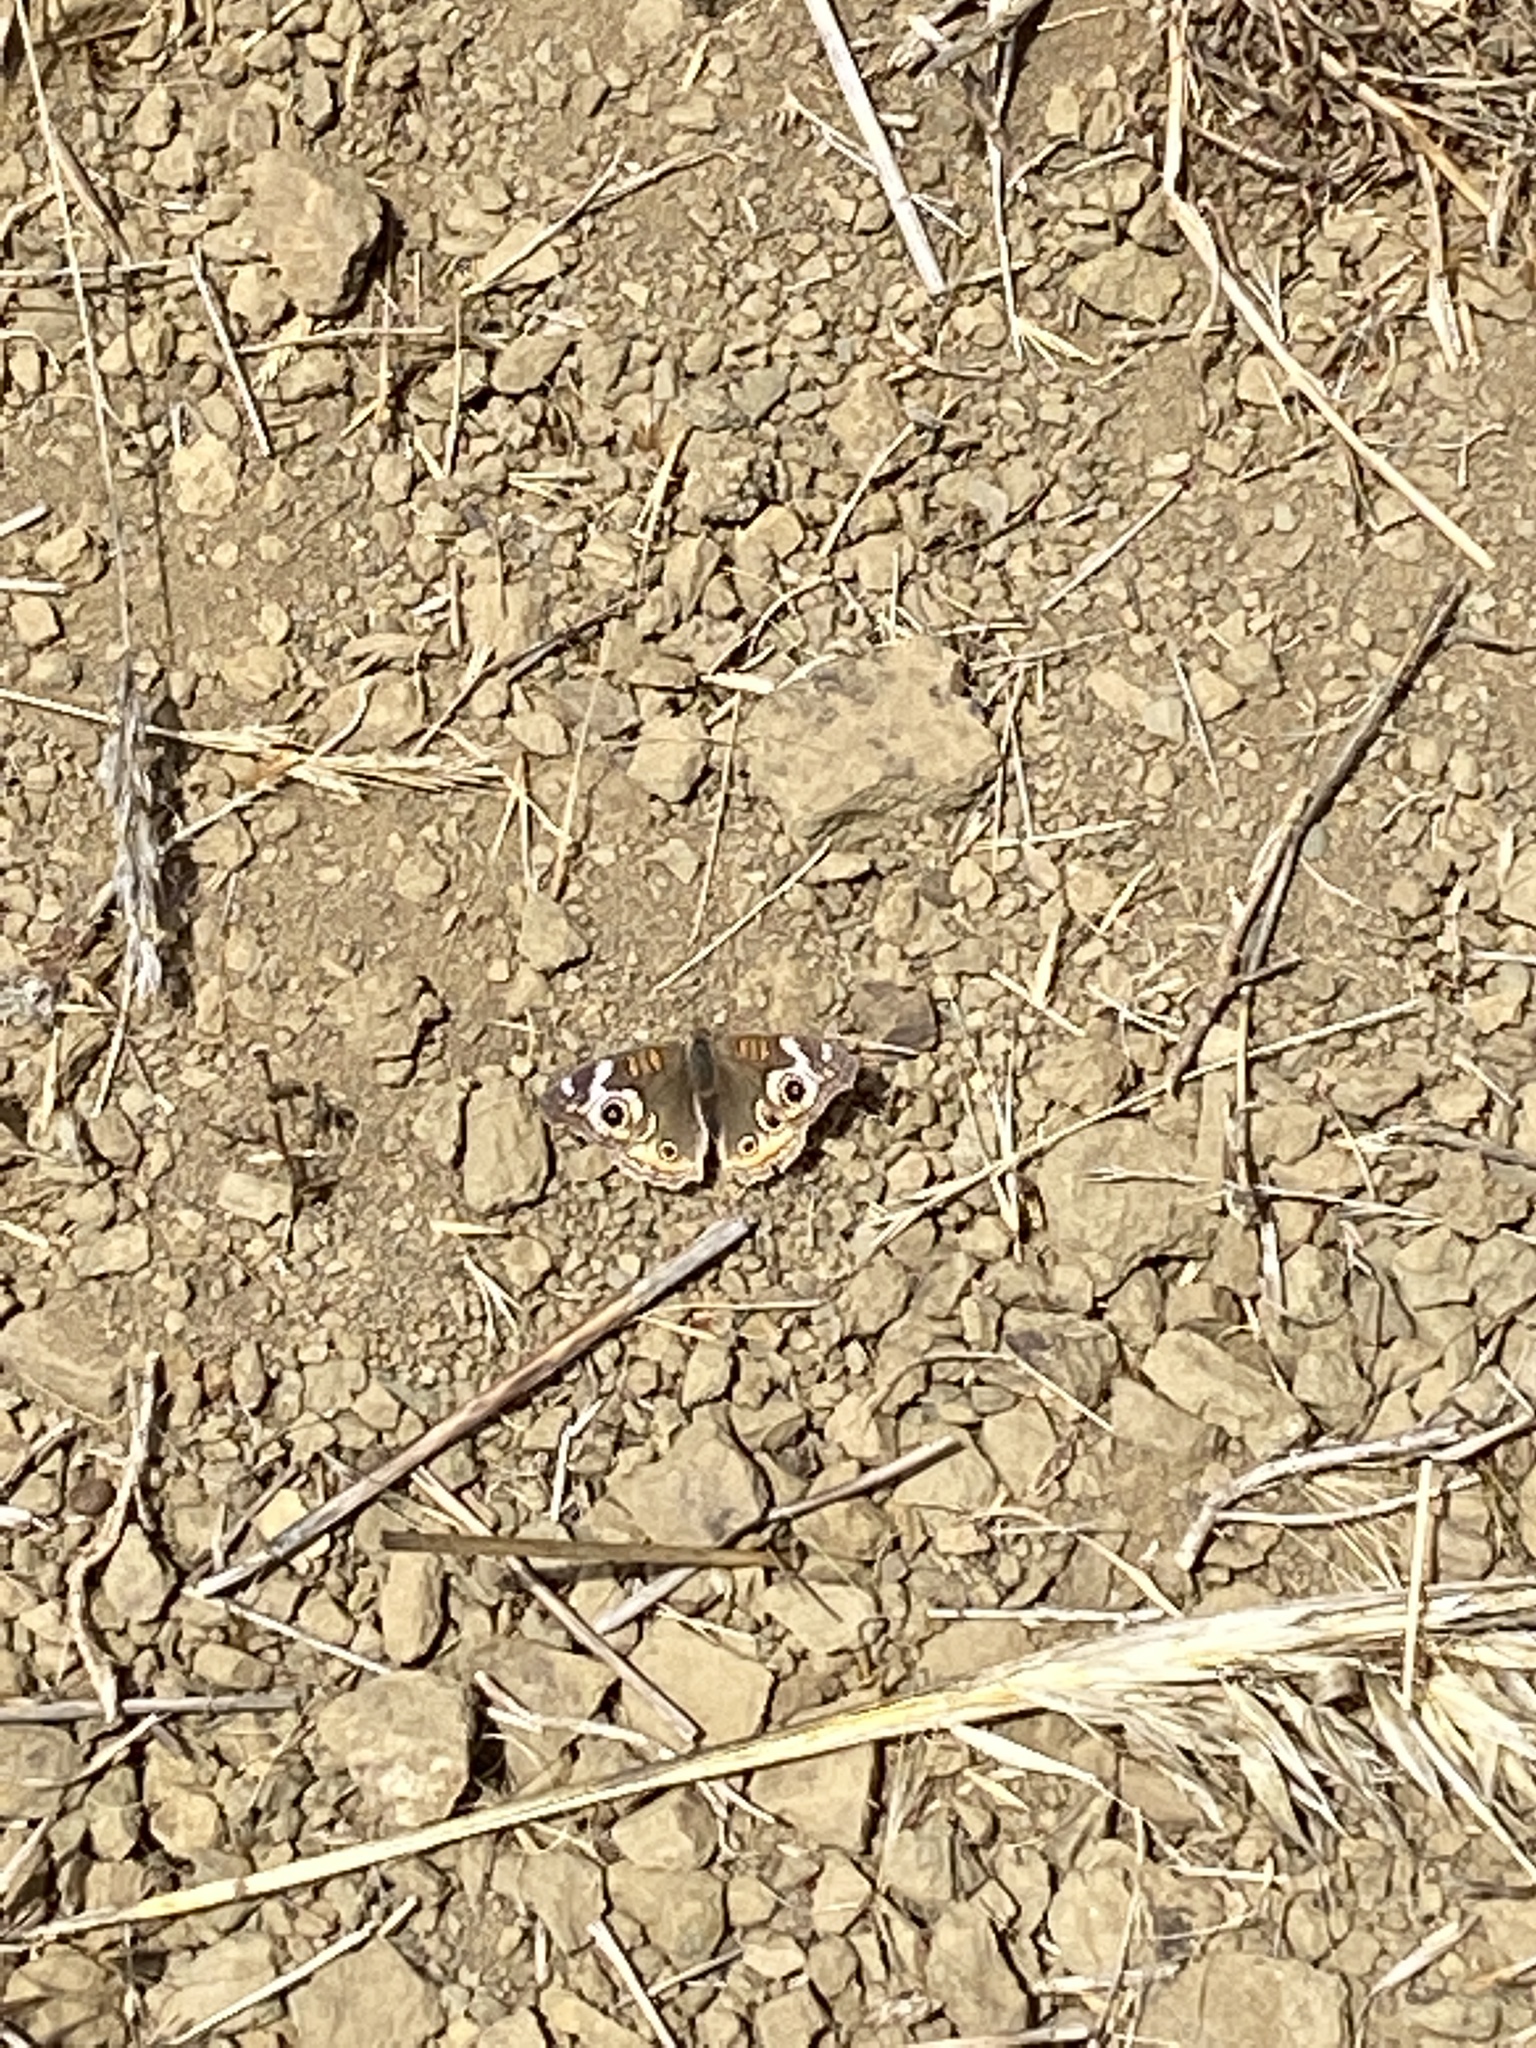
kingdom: Animalia
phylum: Arthropoda
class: Insecta
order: Lepidoptera
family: Nymphalidae
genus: Junonia
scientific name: Junonia grisea
